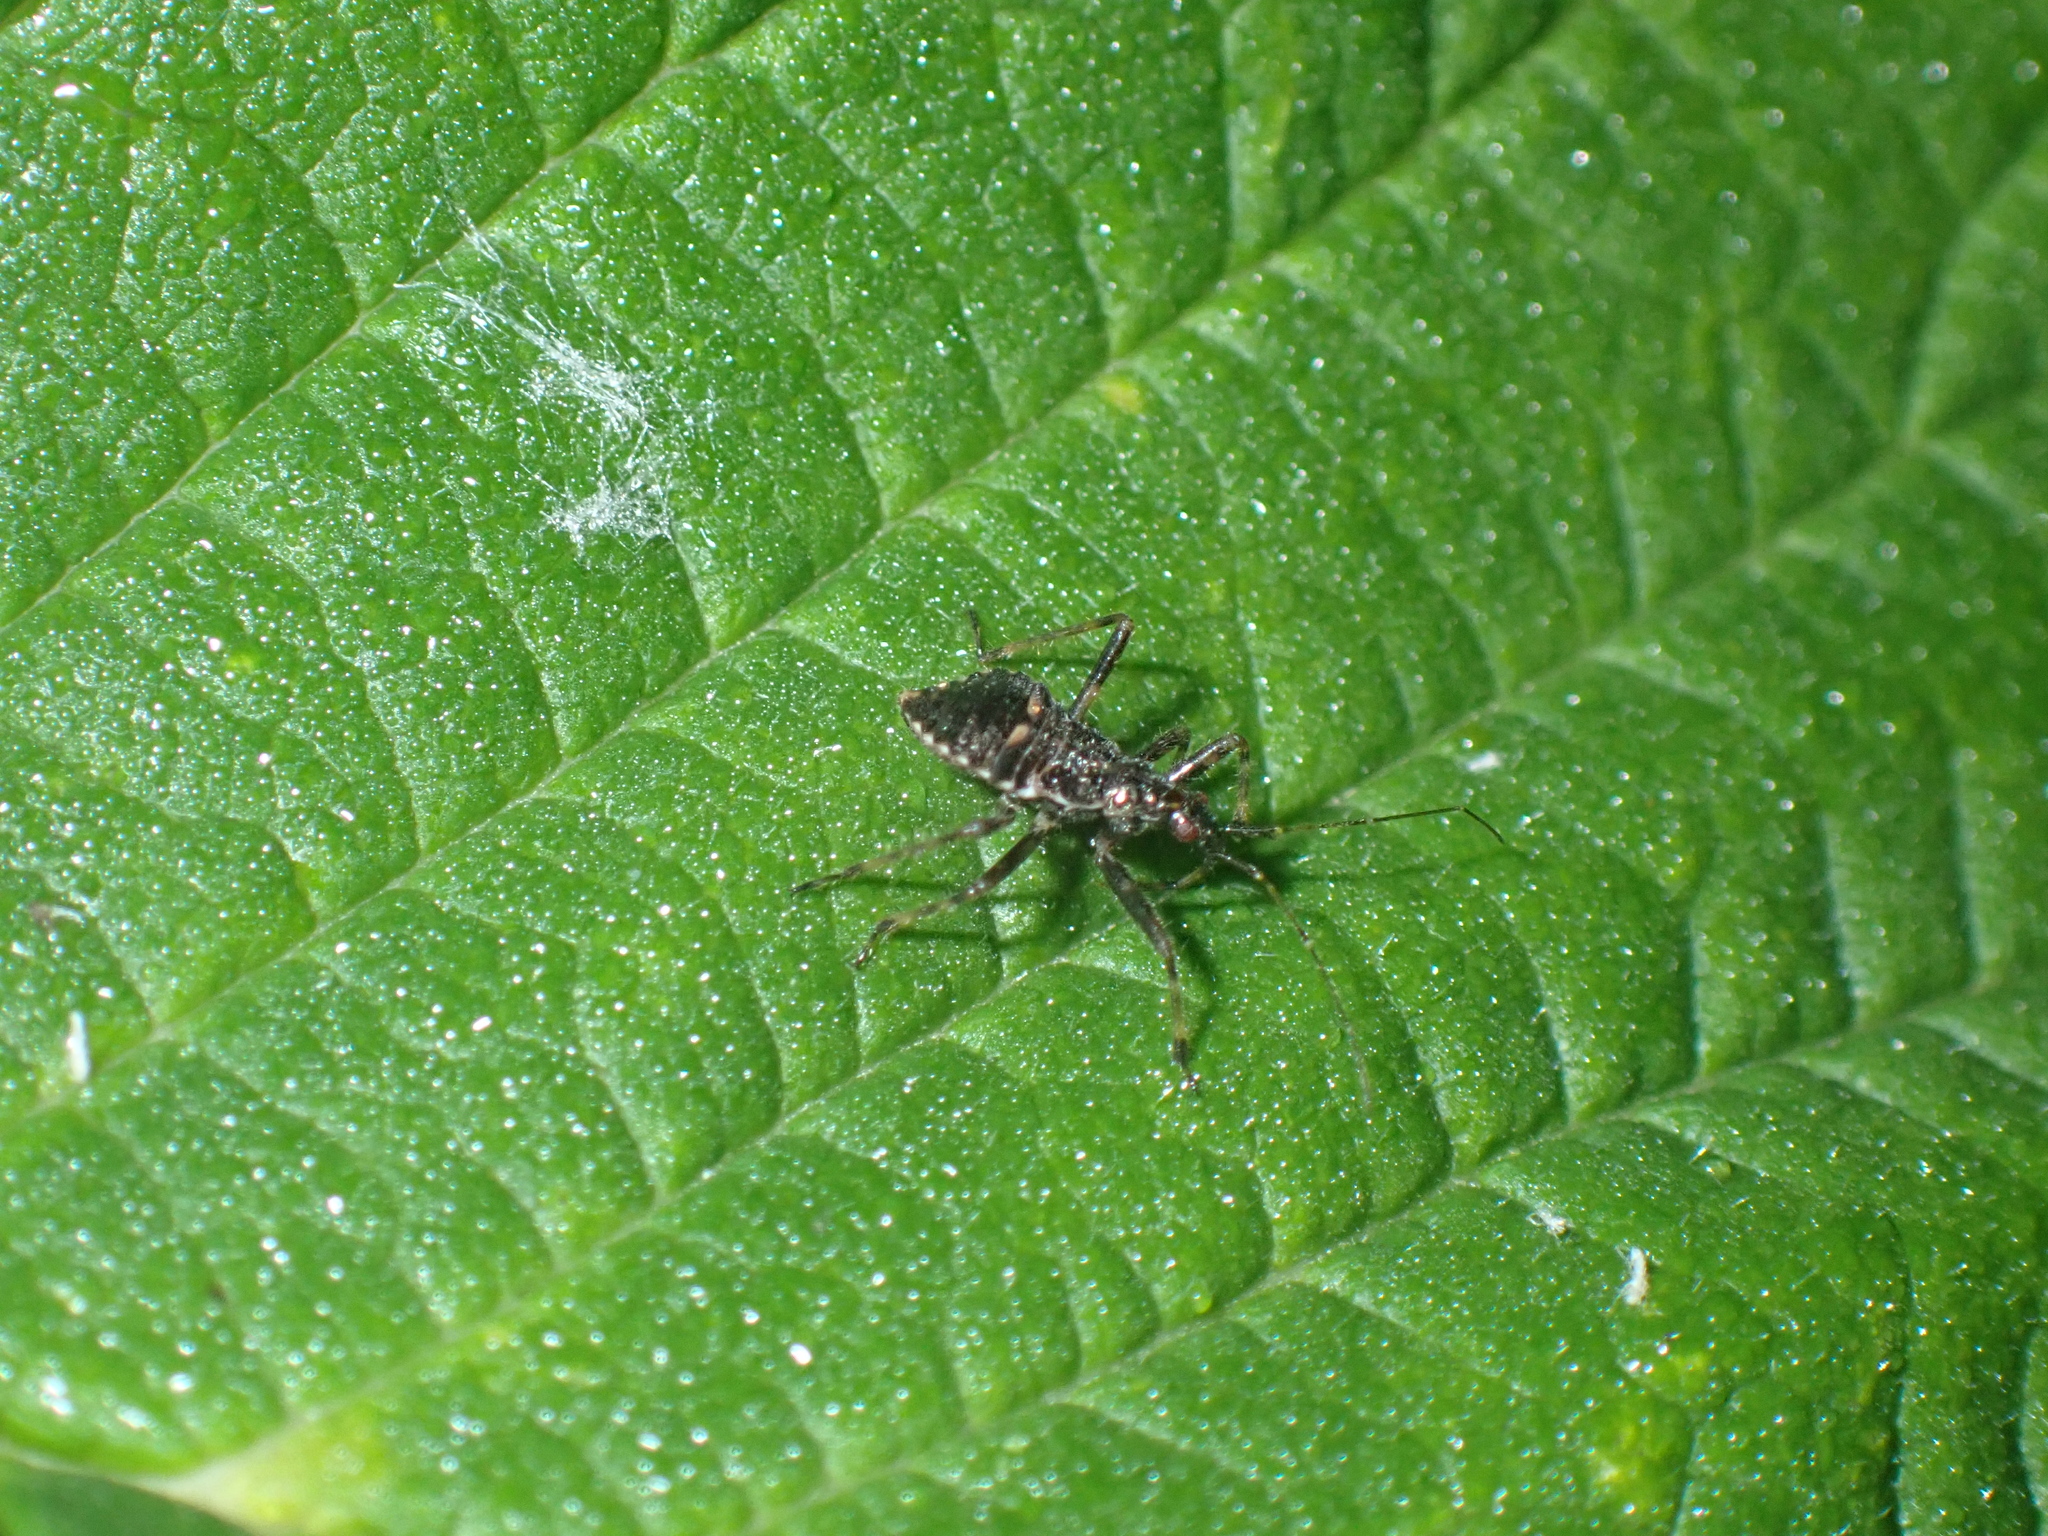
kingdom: Animalia
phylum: Arthropoda
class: Insecta
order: Hemiptera
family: Nabidae
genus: Himacerus
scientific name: Himacerus apterus
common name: Tree damsel bug
